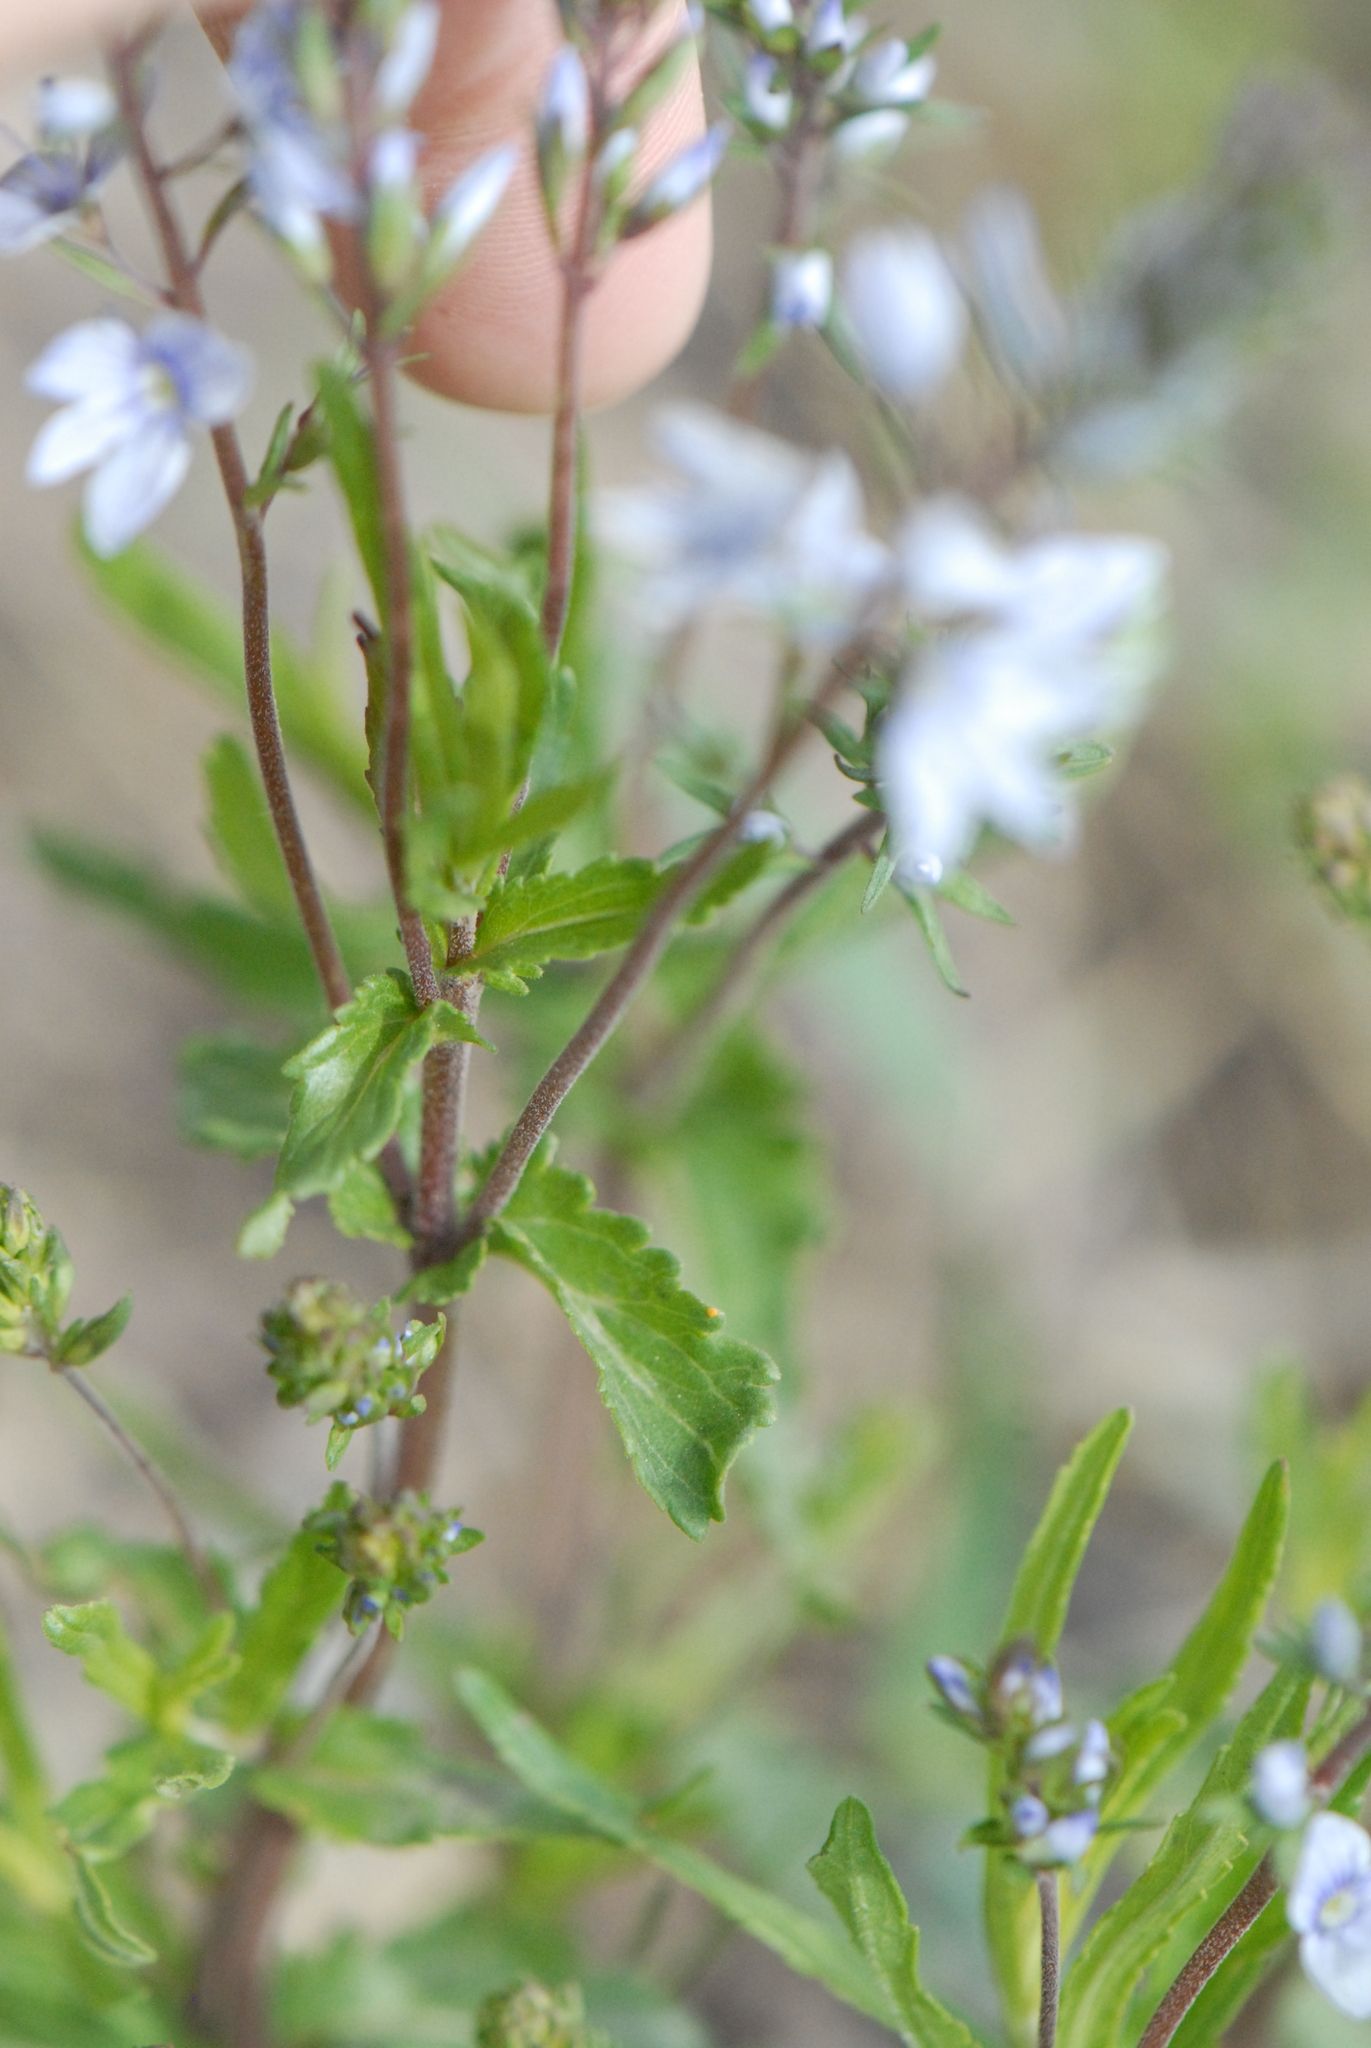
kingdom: Plantae
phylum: Tracheophyta
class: Magnoliopsida
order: Lamiales
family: Plantaginaceae
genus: Veronica
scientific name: Veronica prostrata
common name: Prostrate speedwell
